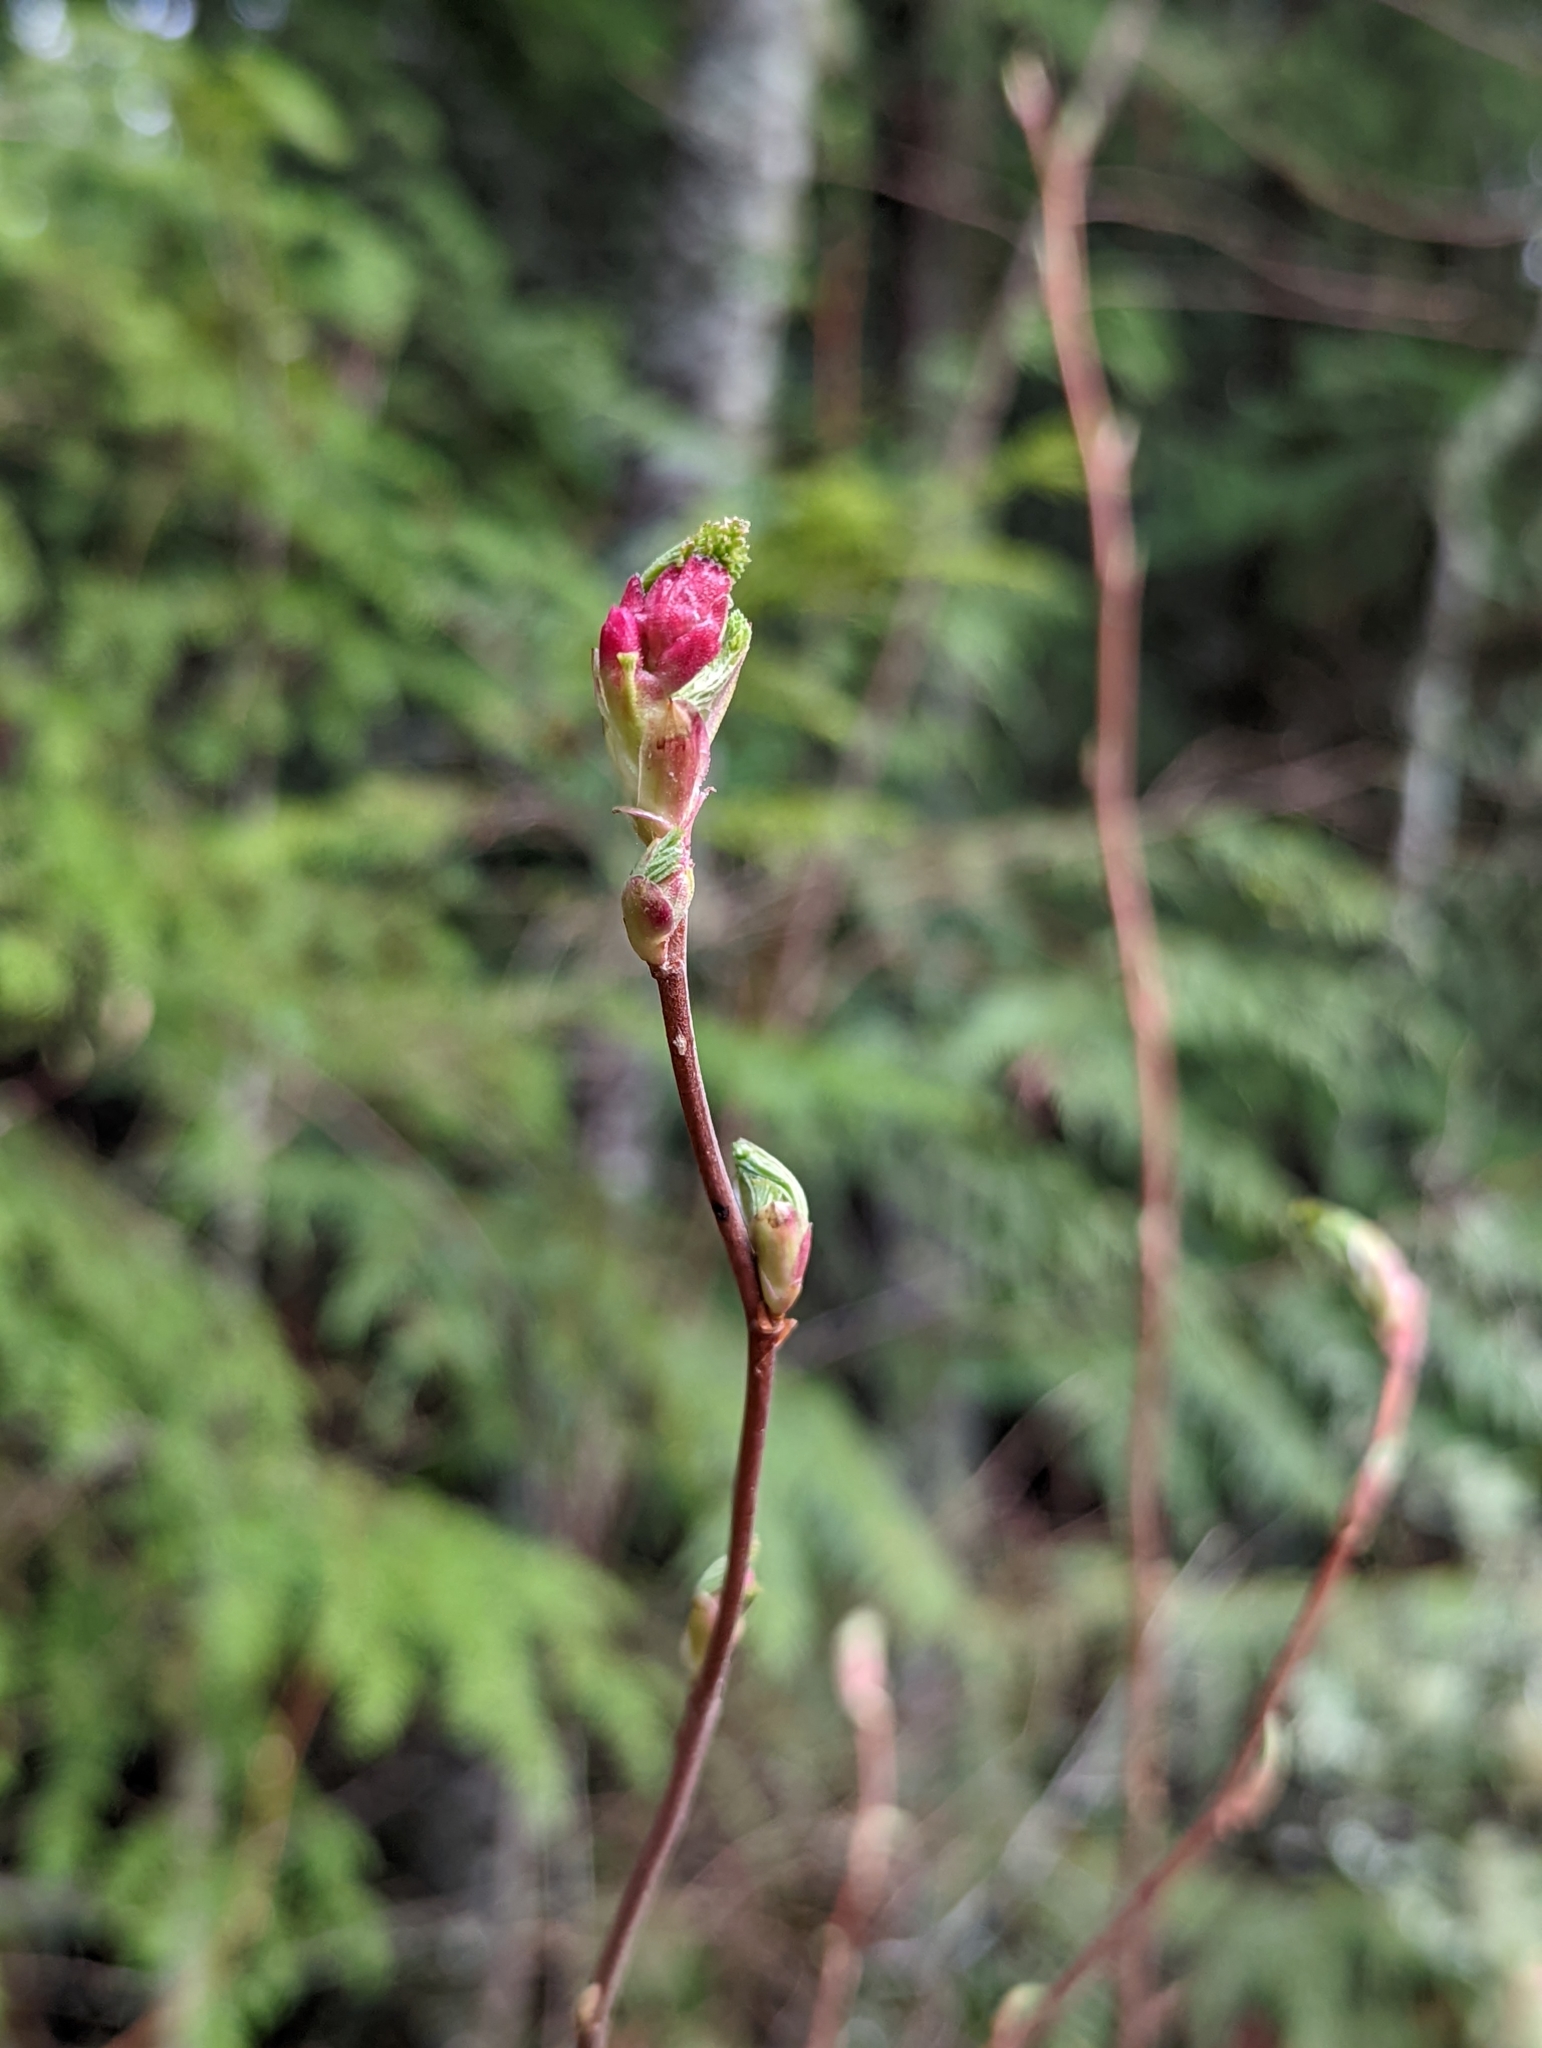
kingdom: Plantae
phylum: Tracheophyta
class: Magnoliopsida
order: Saxifragales
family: Grossulariaceae
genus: Ribes
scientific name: Ribes sanguineum
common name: Flowering currant
